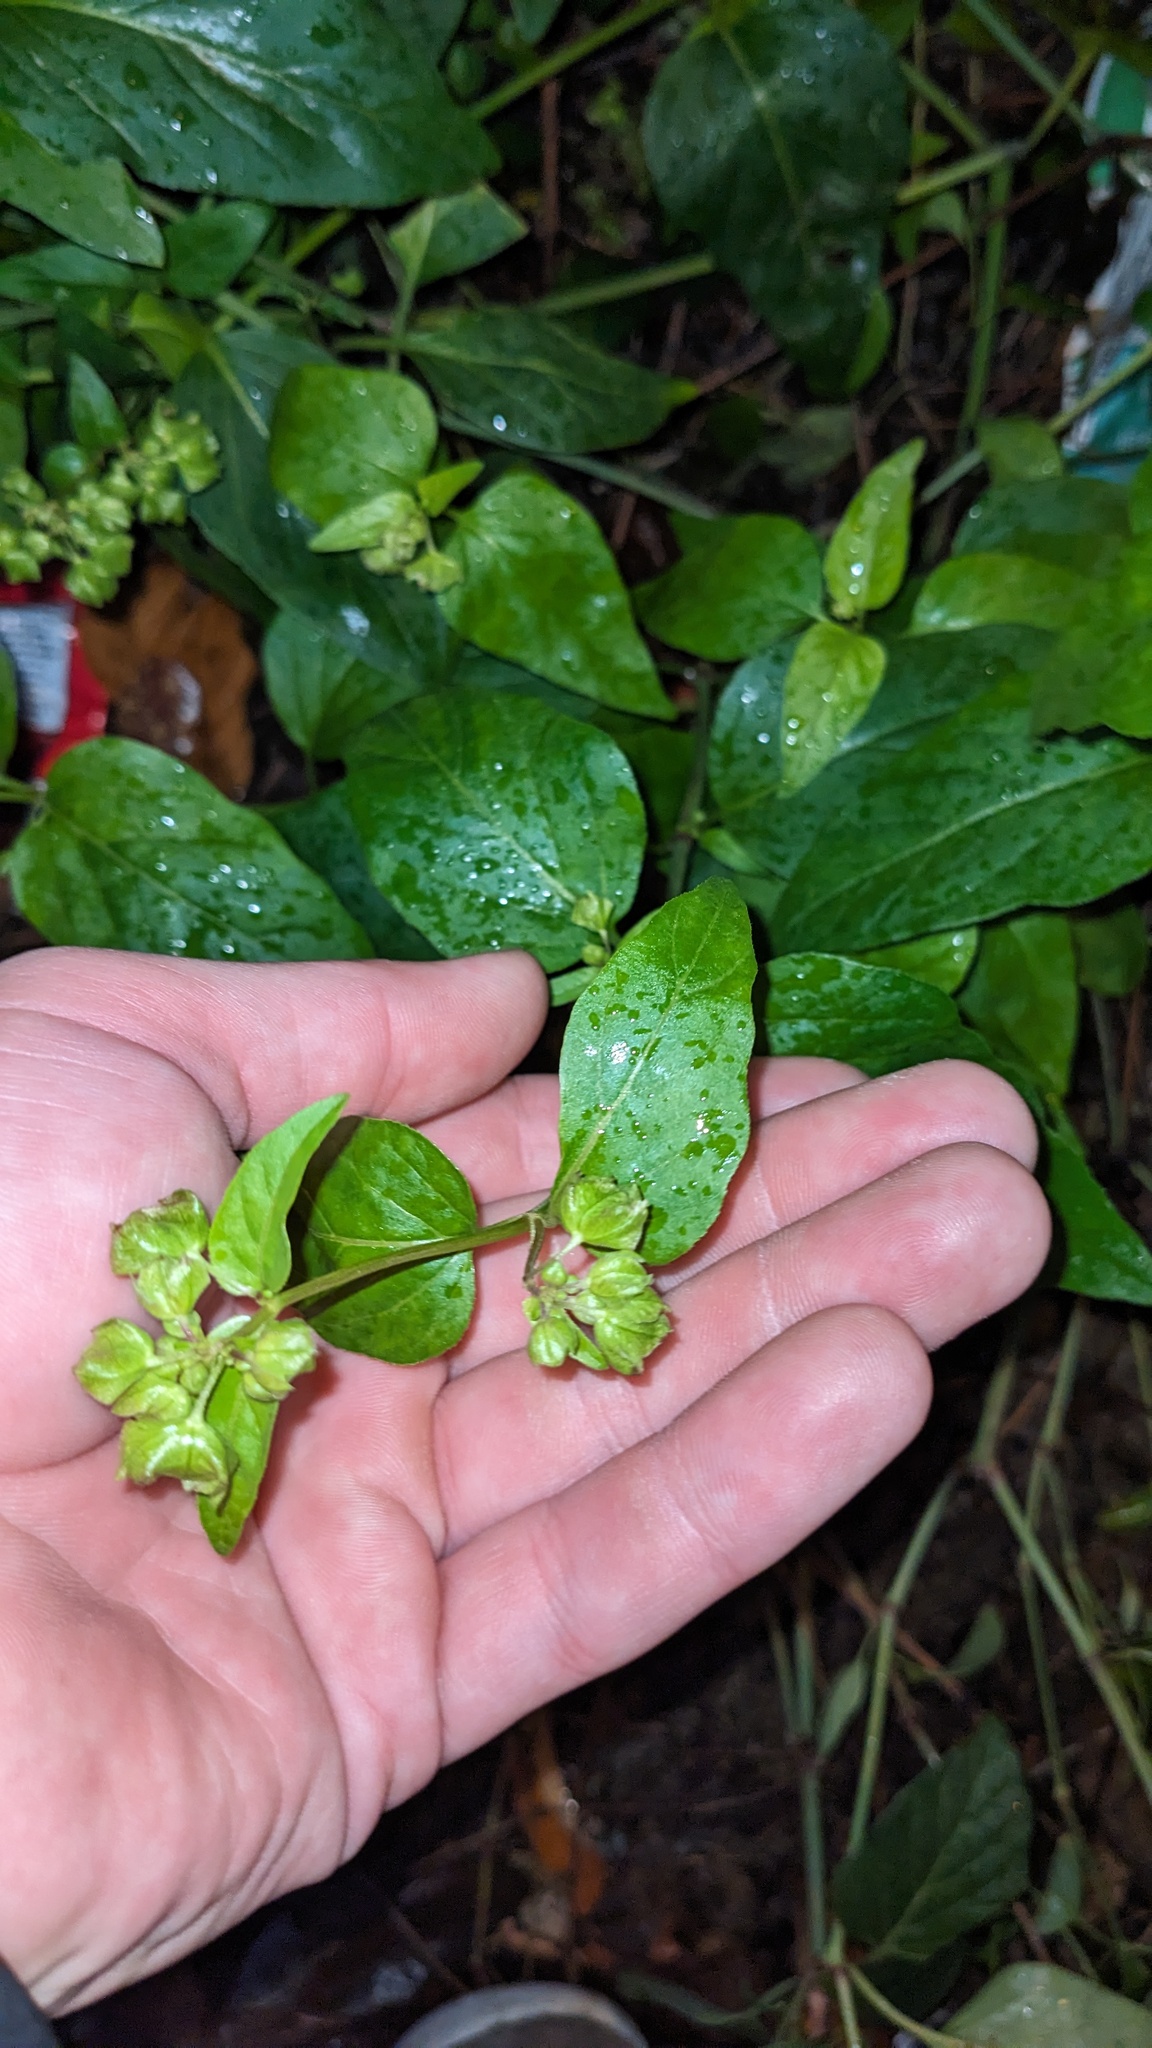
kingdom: Plantae
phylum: Tracheophyta
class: Magnoliopsida
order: Caryophyllales
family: Nyctaginaceae
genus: Mirabilis
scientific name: Mirabilis nyctaginea
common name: Umbrella wort
